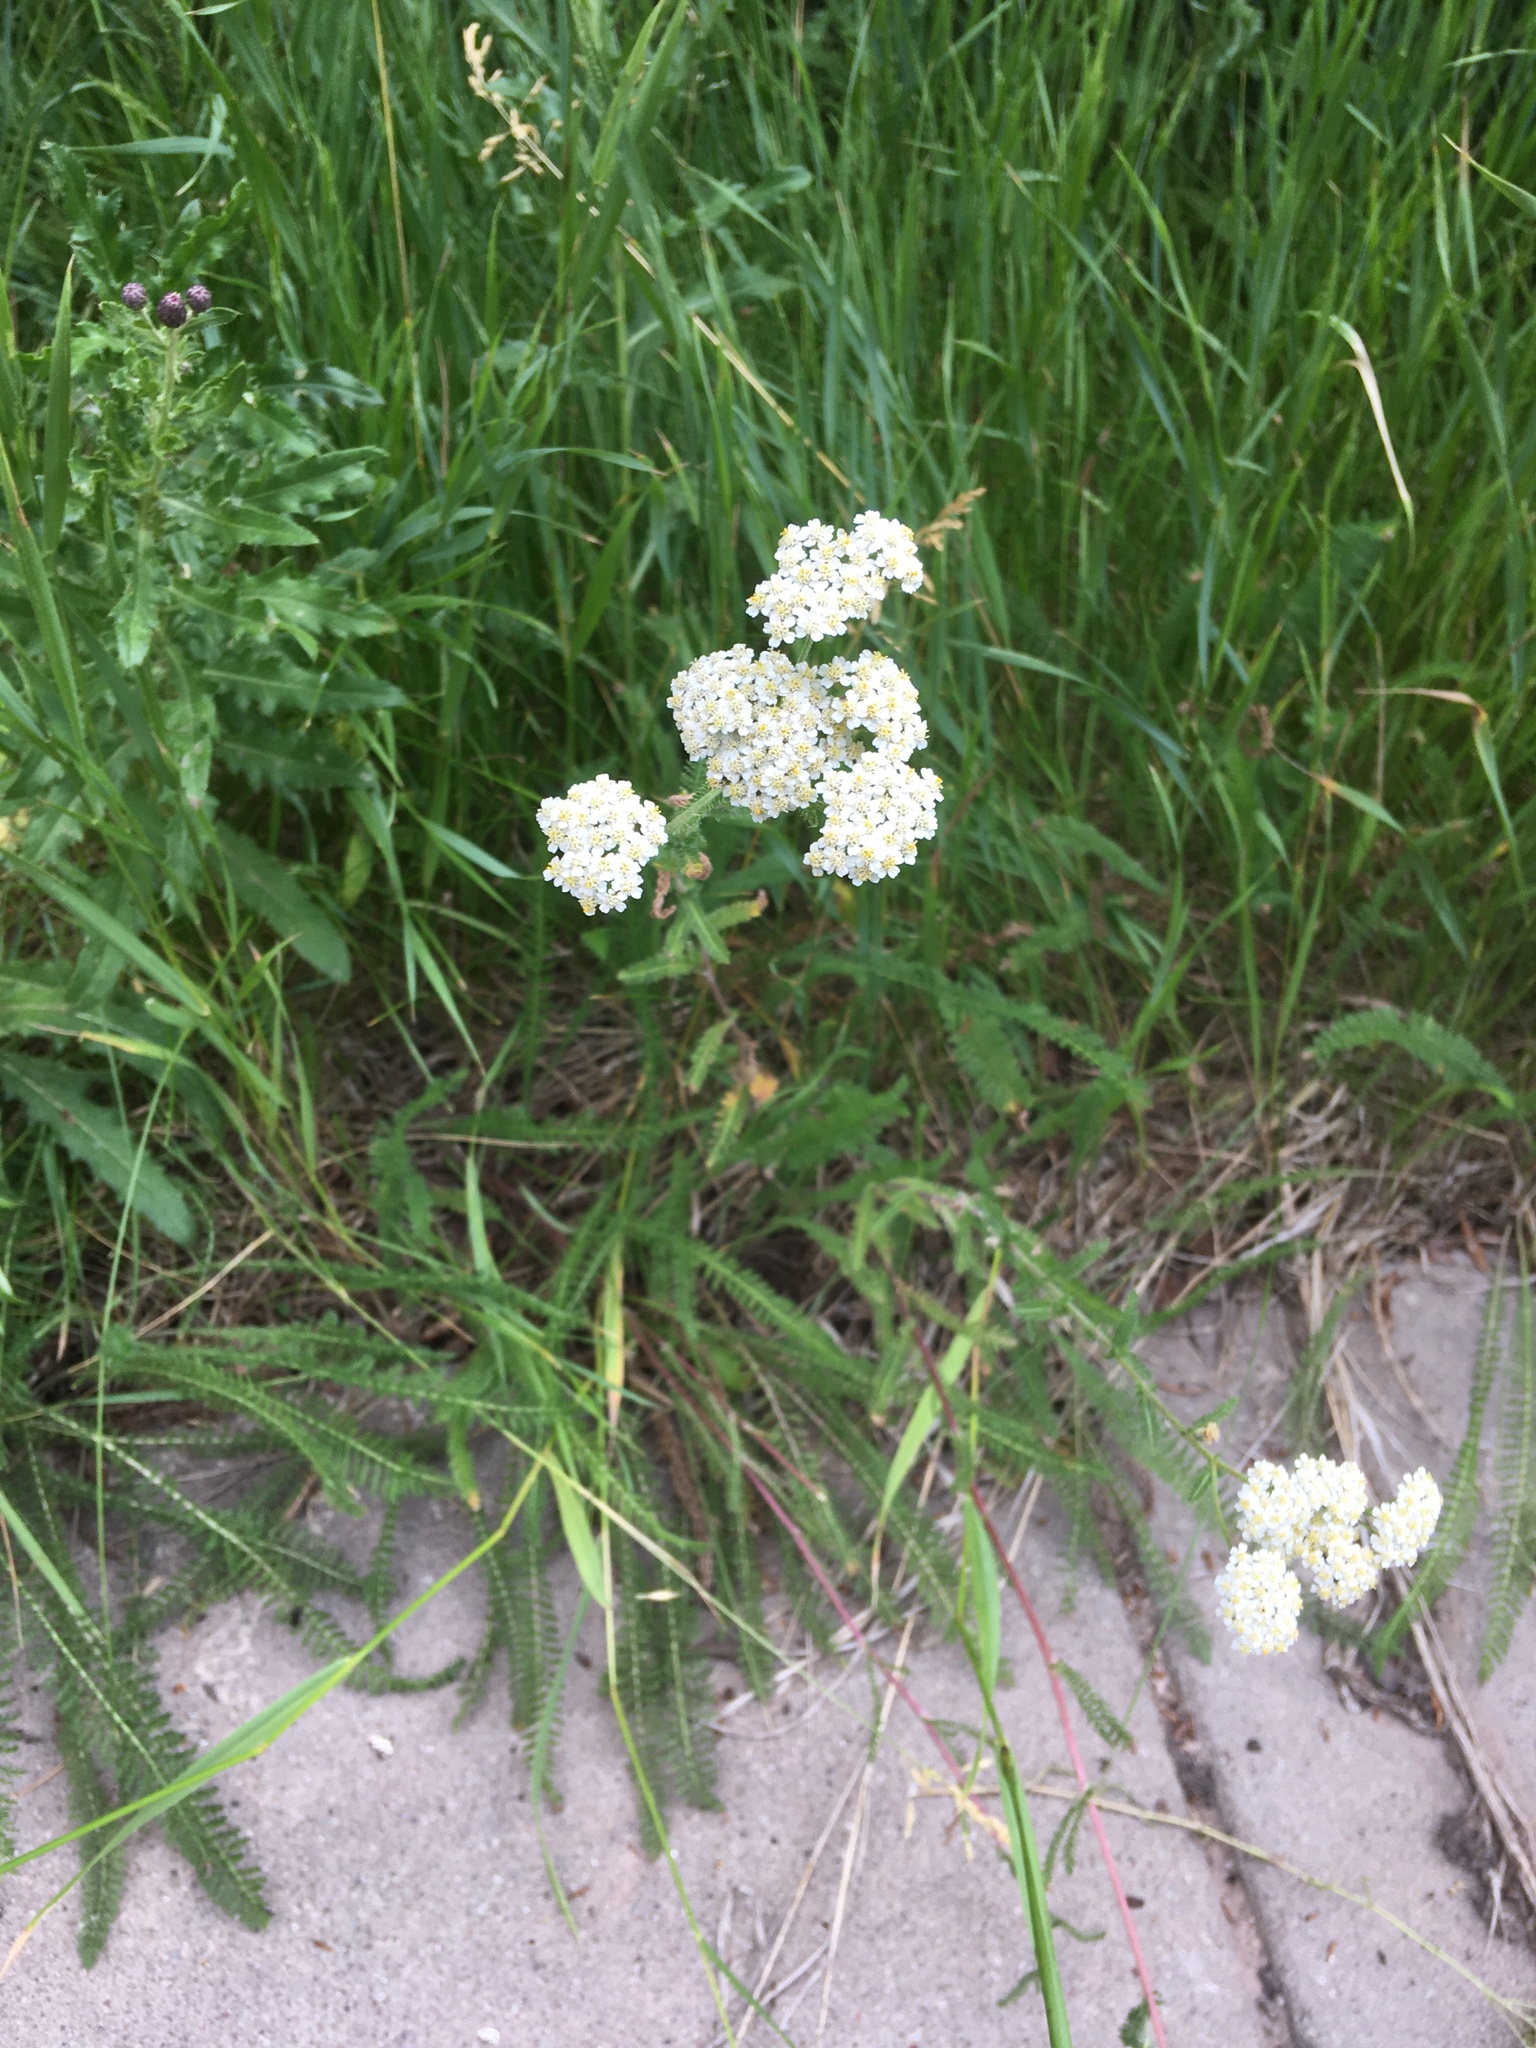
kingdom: Plantae
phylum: Tracheophyta
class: Magnoliopsida
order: Asterales
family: Asteraceae
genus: Achillea
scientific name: Achillea millefolium
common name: Yarrow
